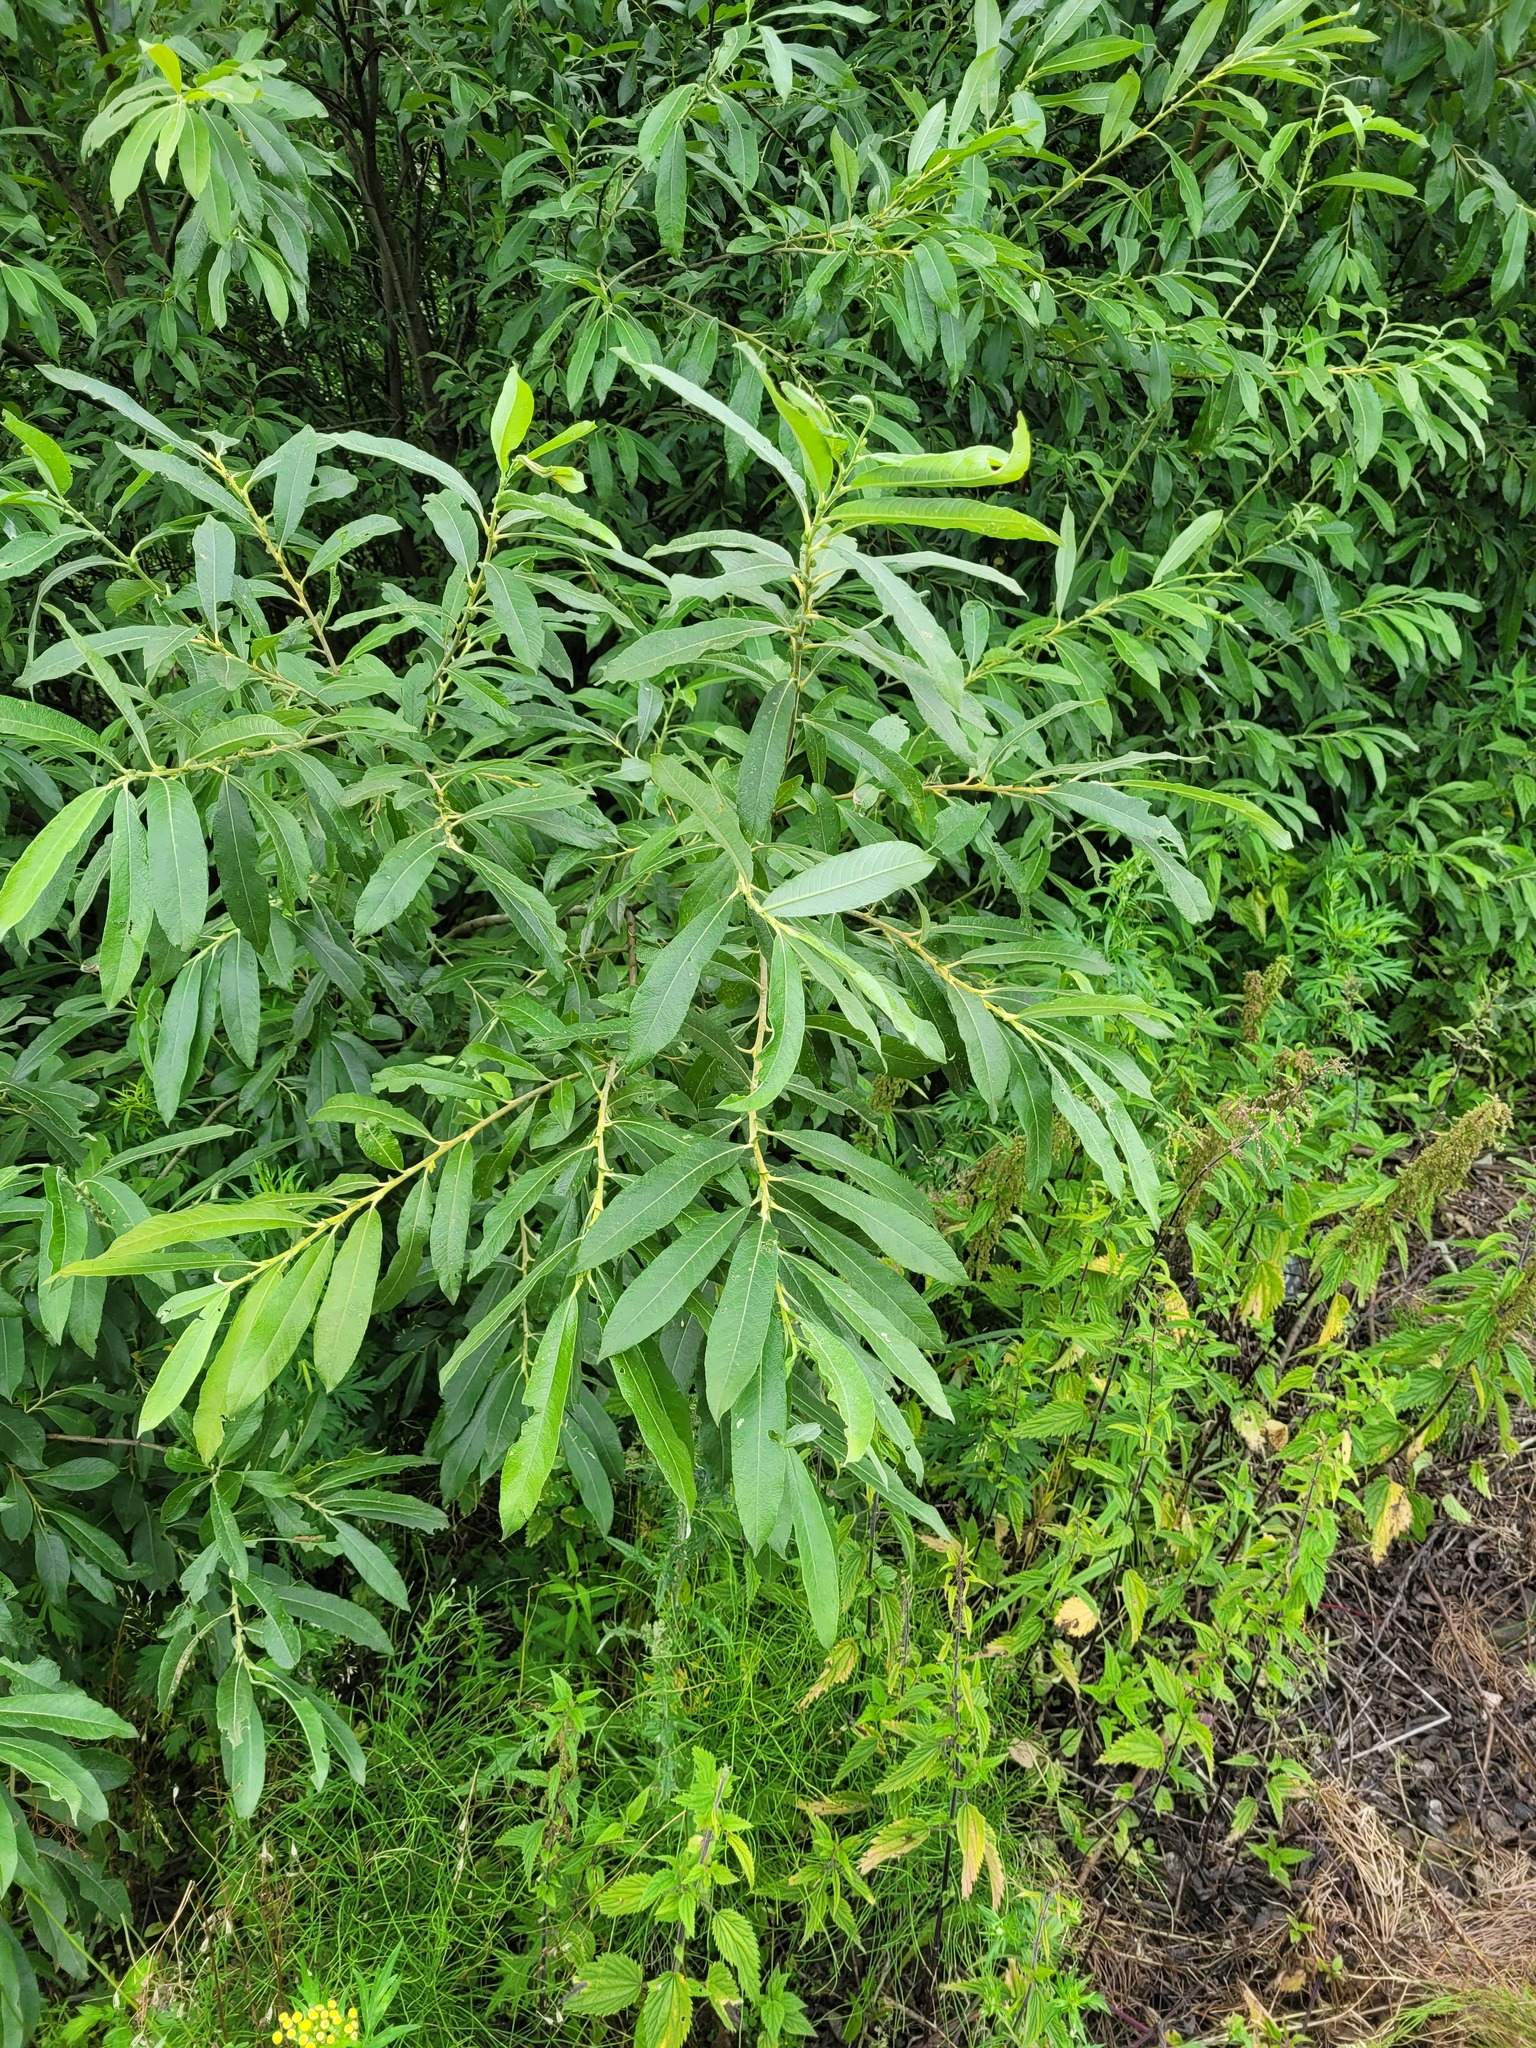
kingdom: Plantae
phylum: Tracheophyta
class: Magnoliopsida
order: Malpighiales
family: Salicaceae
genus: Salix
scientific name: Salix gmelinii
